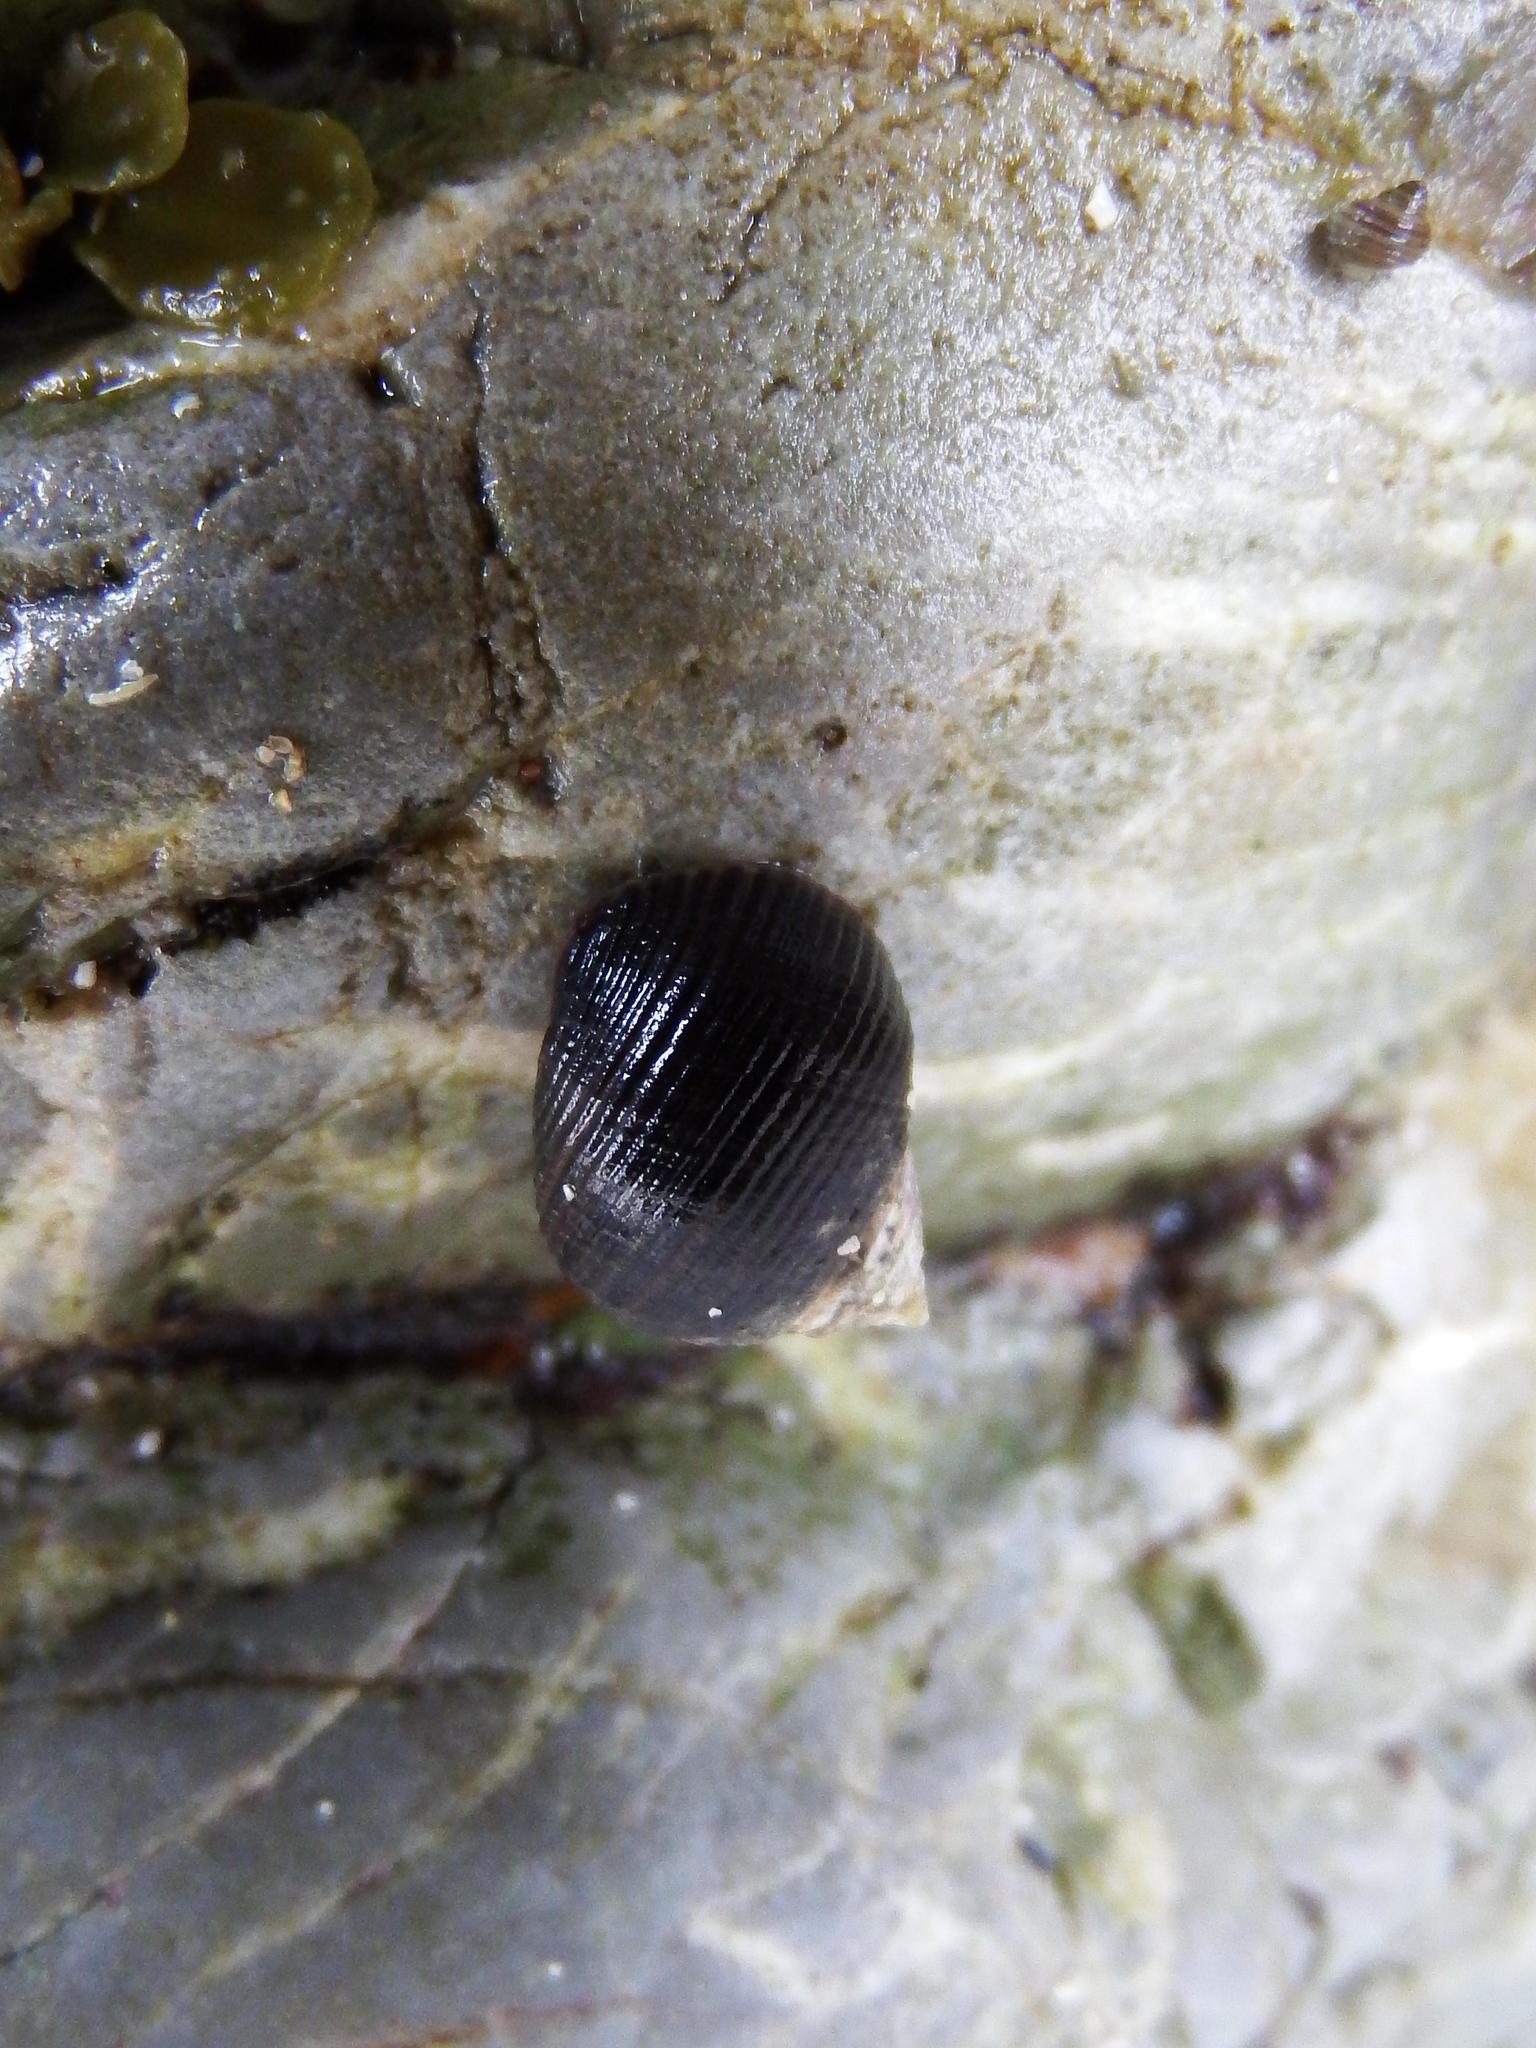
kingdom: Animalia
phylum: Mollusca
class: Gastropoda
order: Littorinimorpha
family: Littorinidae
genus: Littorina
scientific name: Littorina littorea
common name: Common periwinkle
